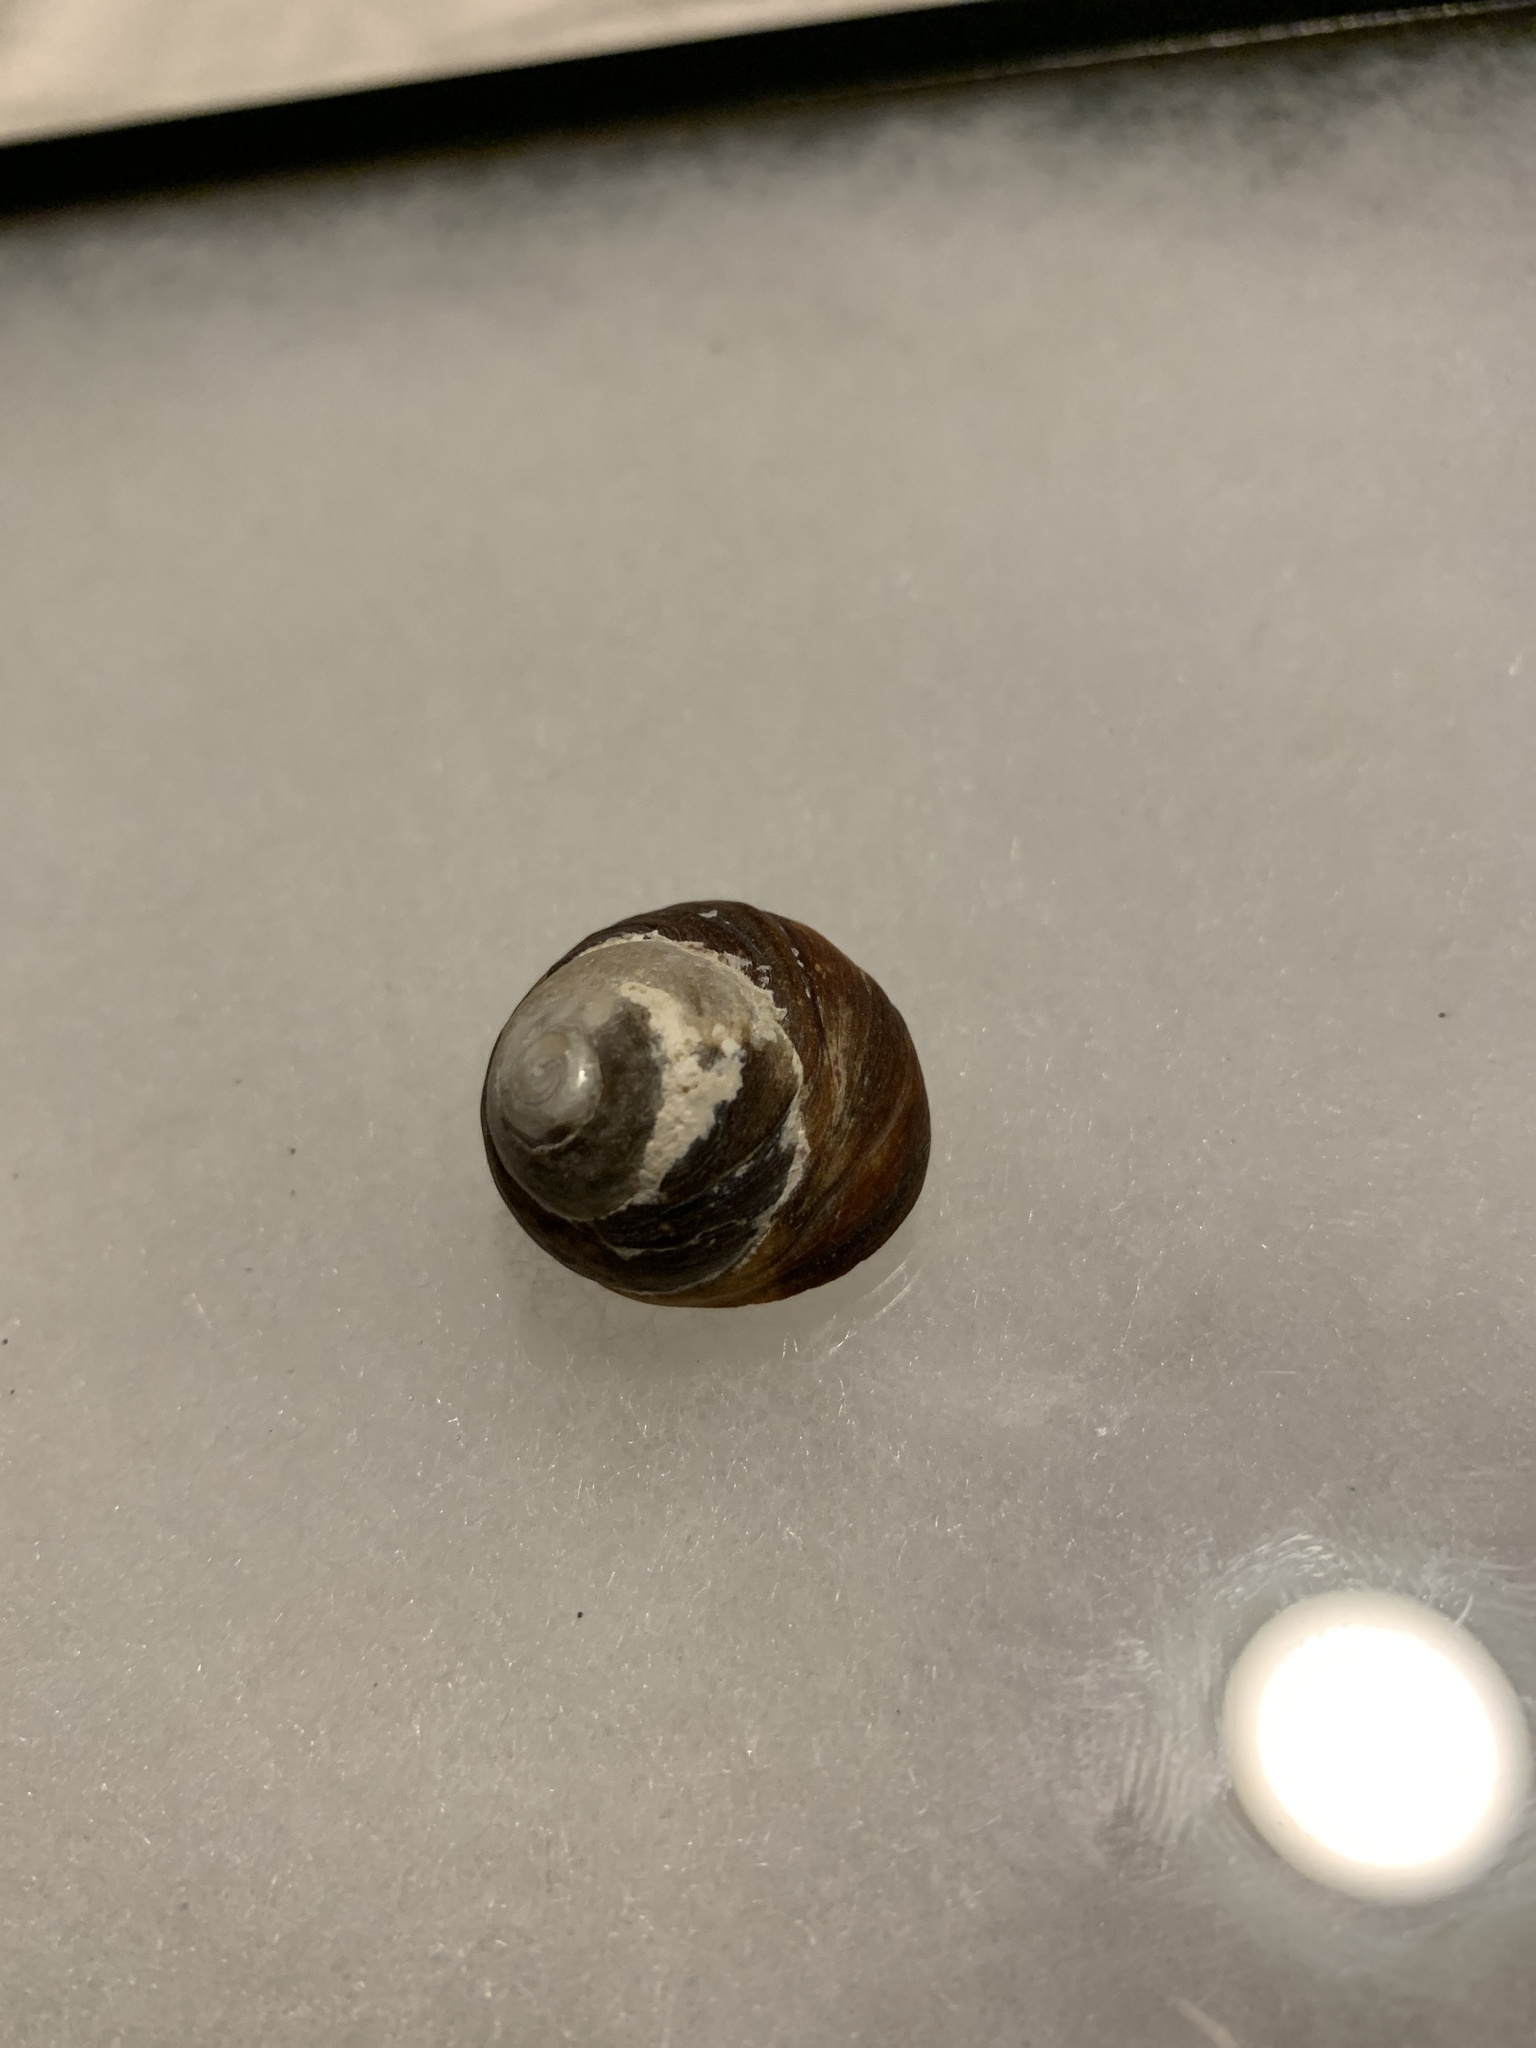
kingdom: Animalia
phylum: Mollusca
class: Gastropoda
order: Trochida
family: Tegulidae
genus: Tegula
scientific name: Tegula brunnea
